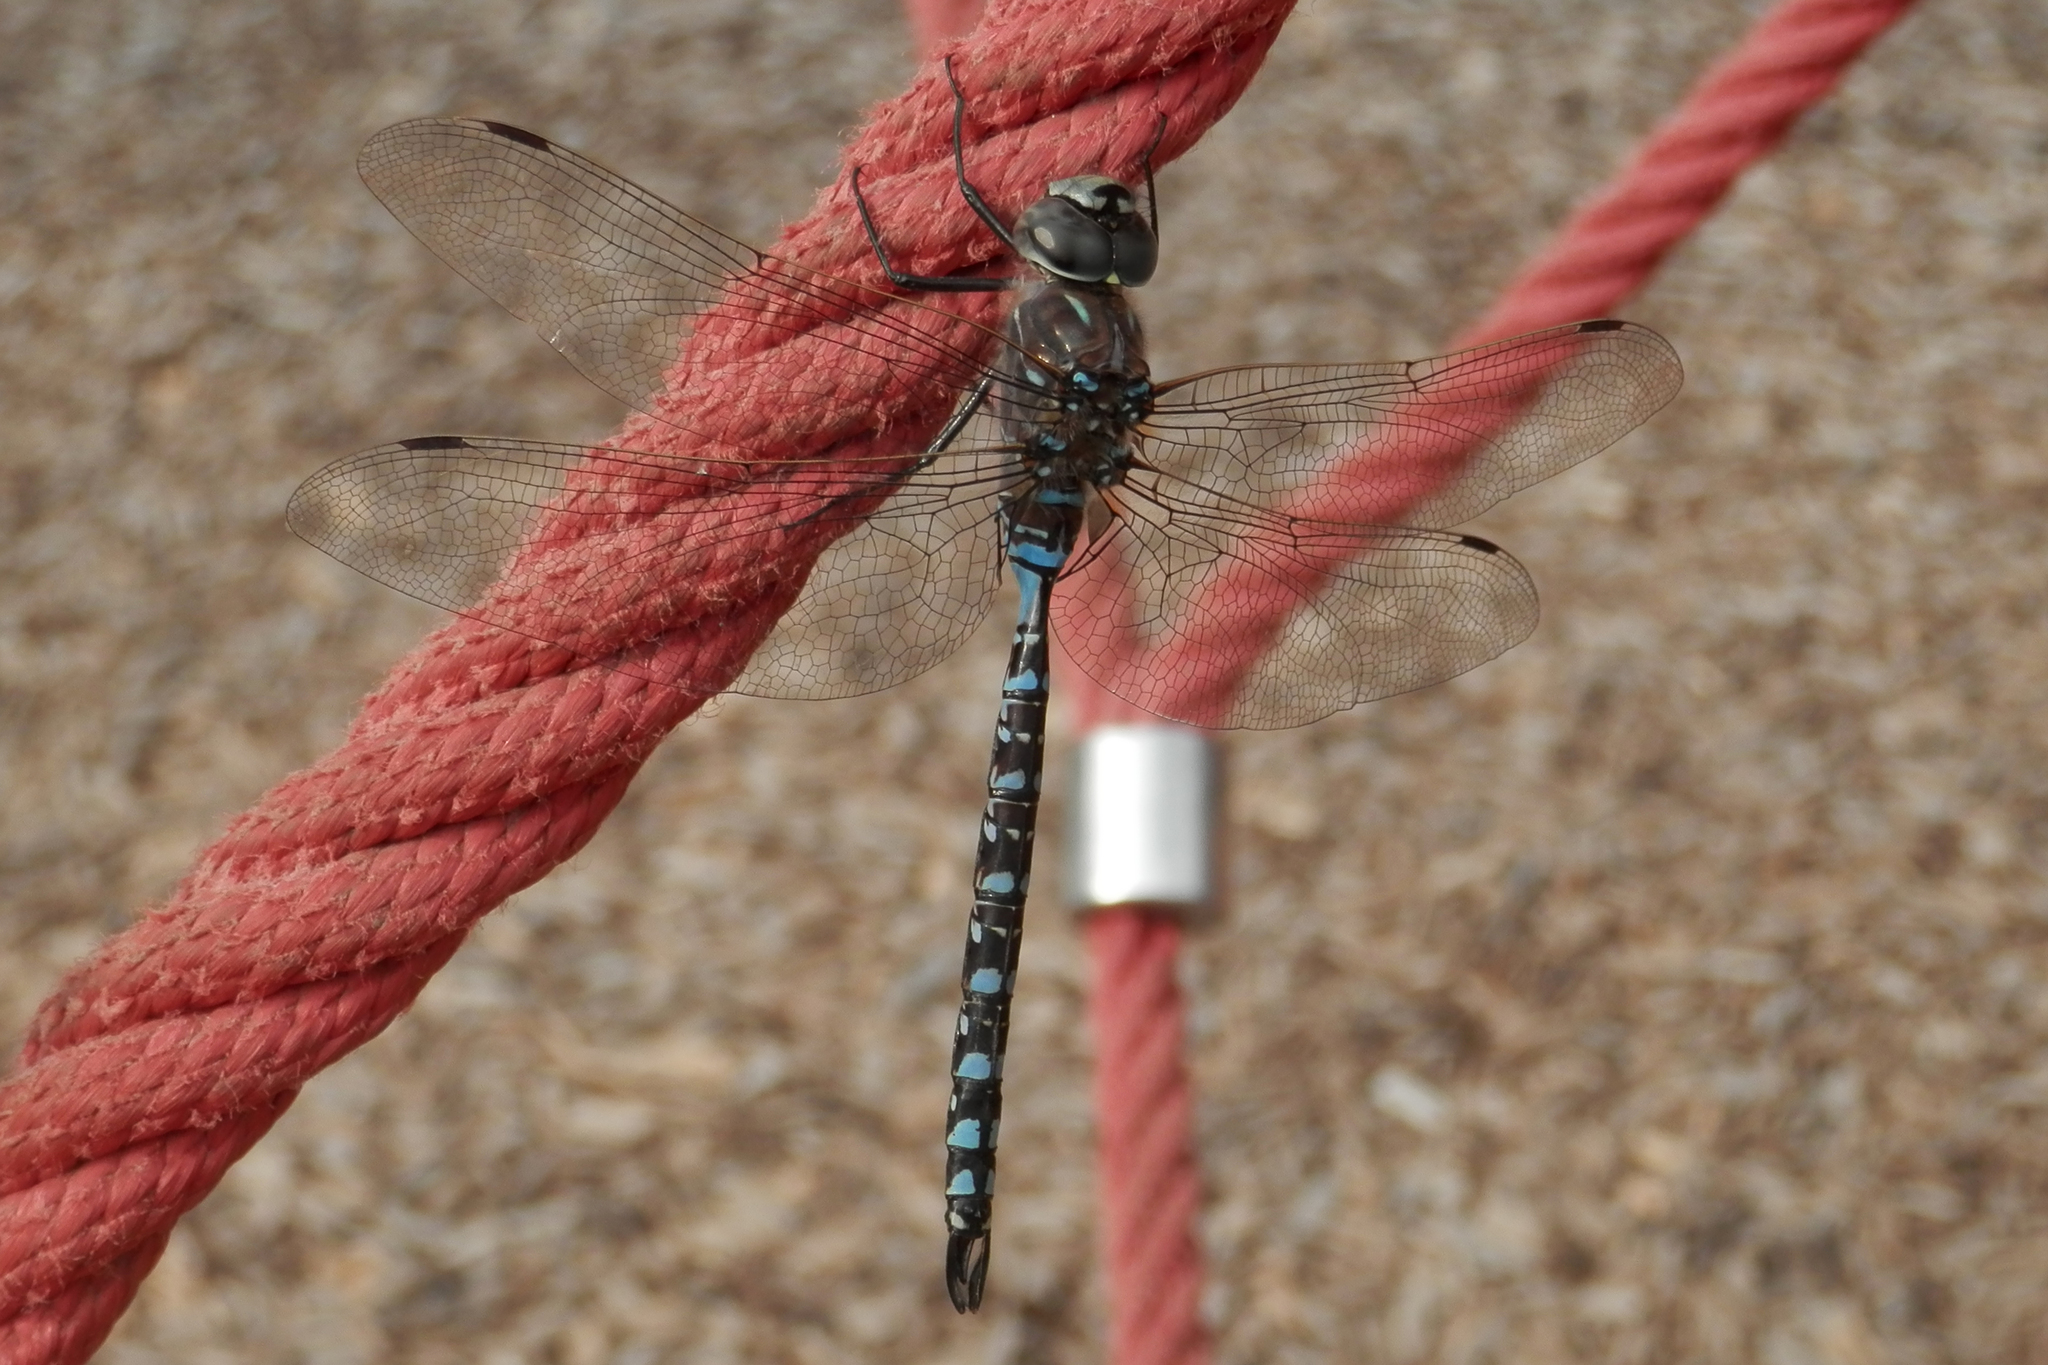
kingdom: Animalia
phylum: Arthropoda
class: Insecta
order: Odonata
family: Aeshnidae
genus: Aeshna
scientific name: Aeshna interrupta
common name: Variable darner
